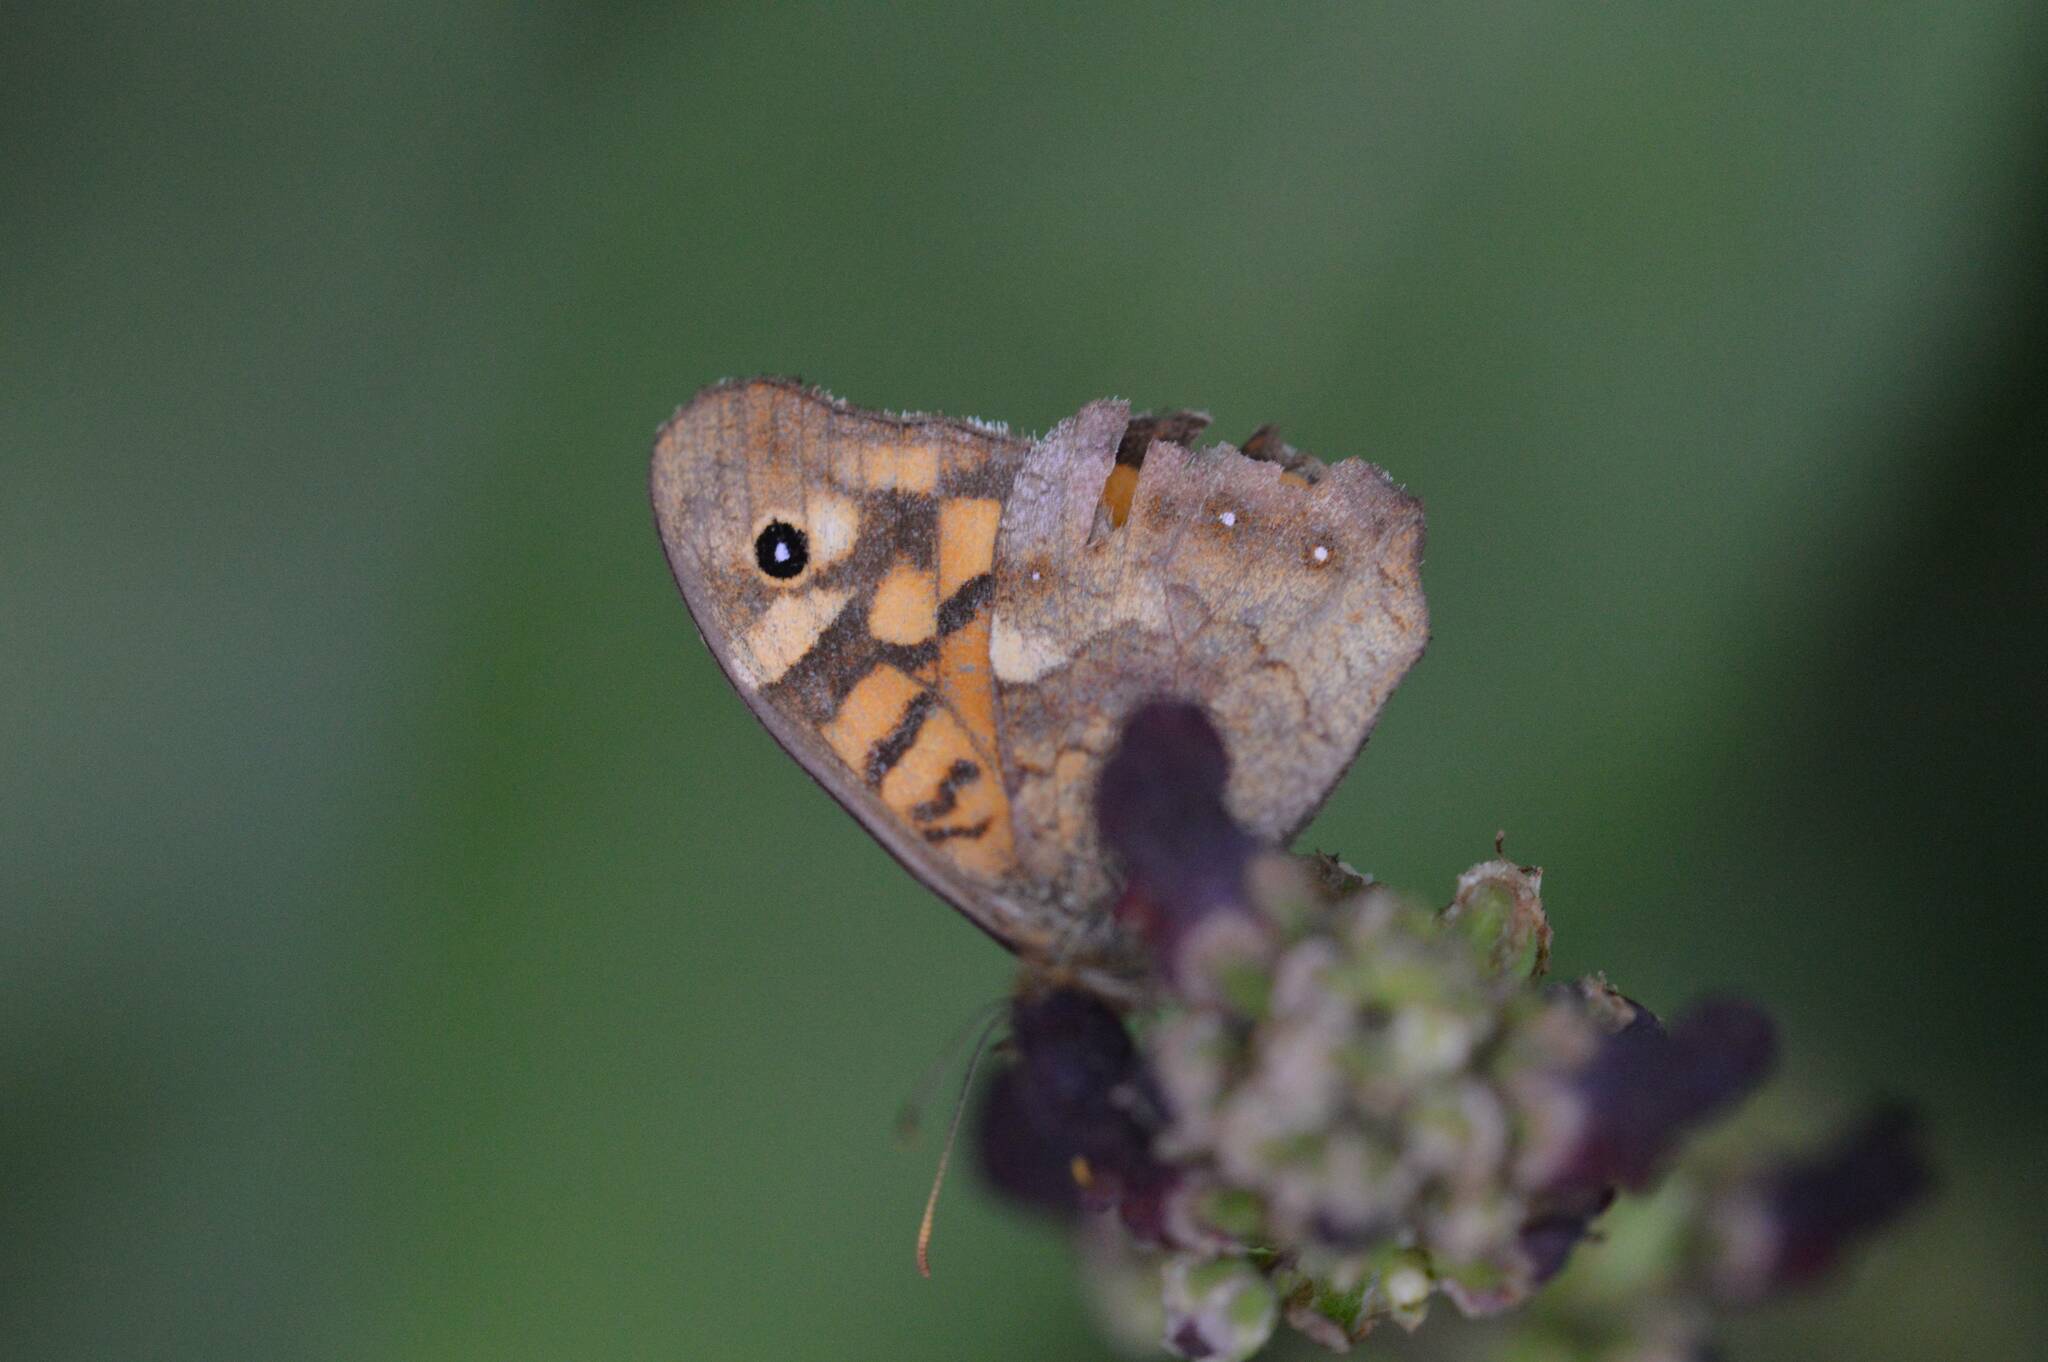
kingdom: Animalia
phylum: Arthropoda
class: Insecta
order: Lepidoptera
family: Nymphalidae
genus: Pararge
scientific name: Pararge aegeria
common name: Speckled wood
